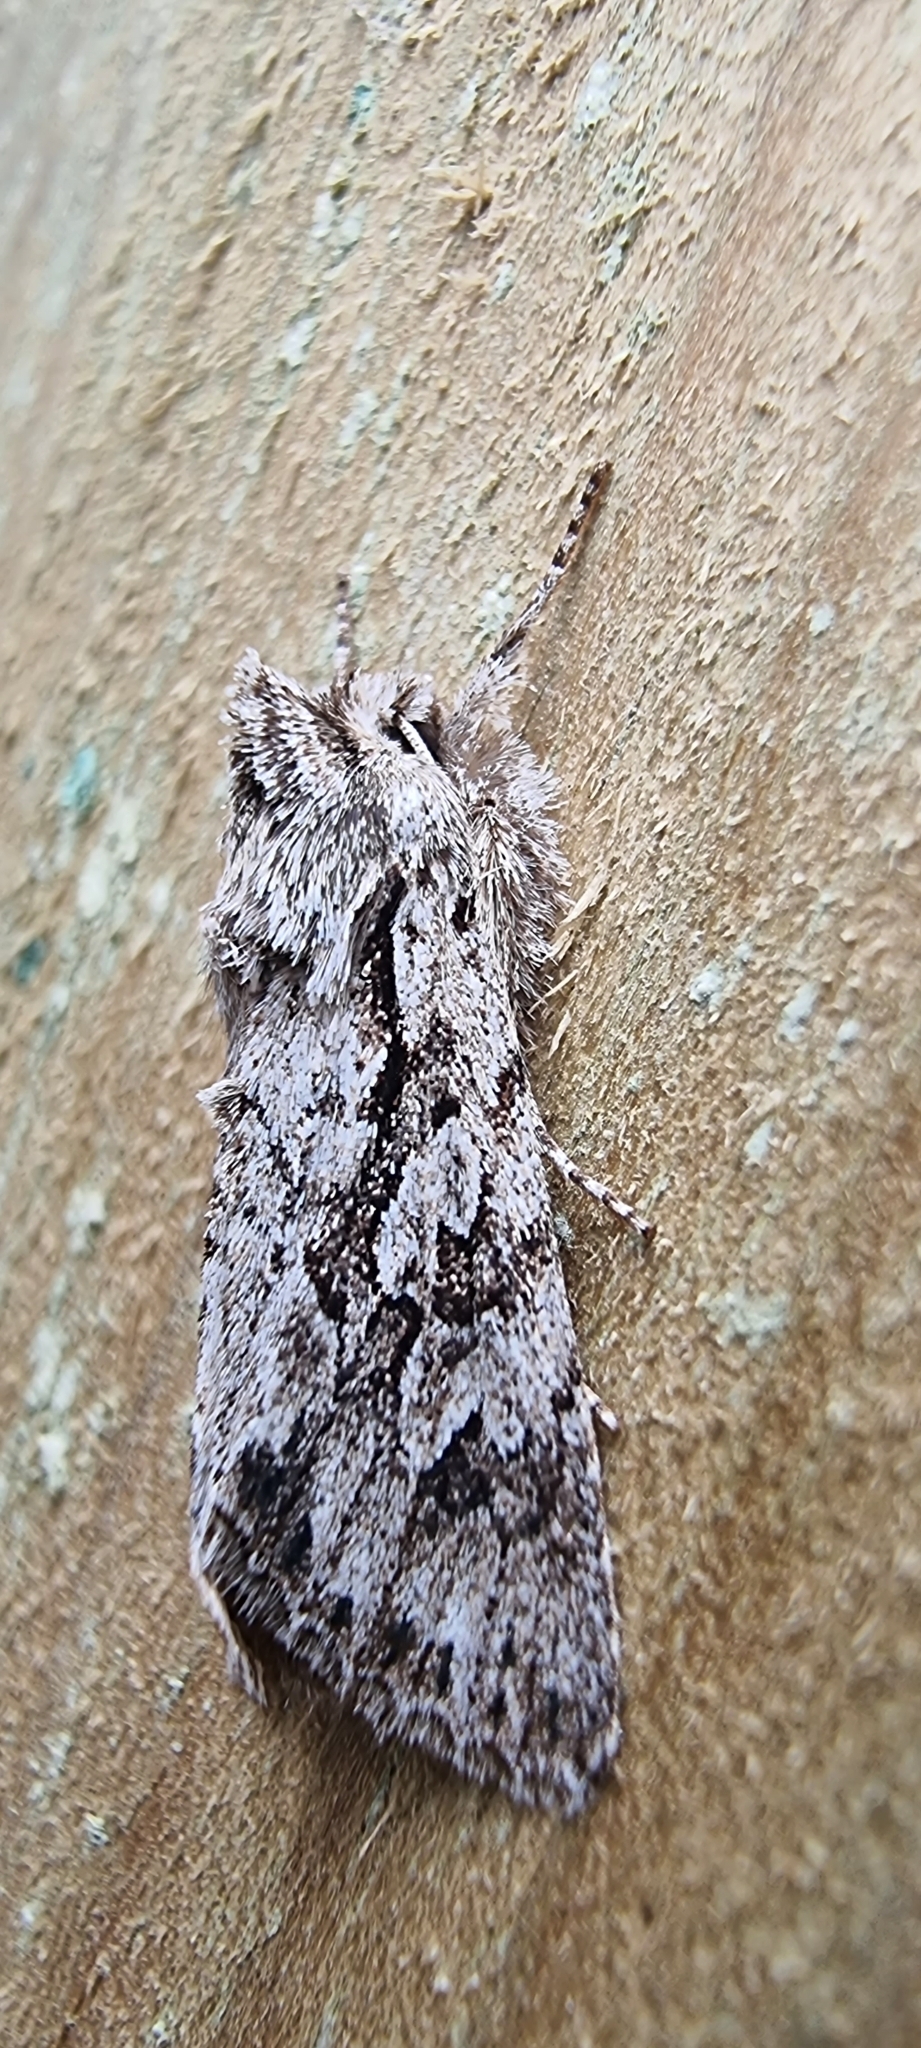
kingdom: Animalia
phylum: Arthropoda
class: Insecta
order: Lepidoptera
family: Noctuidae
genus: Xylocampa
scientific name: Xylocampa areola
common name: Early grey
